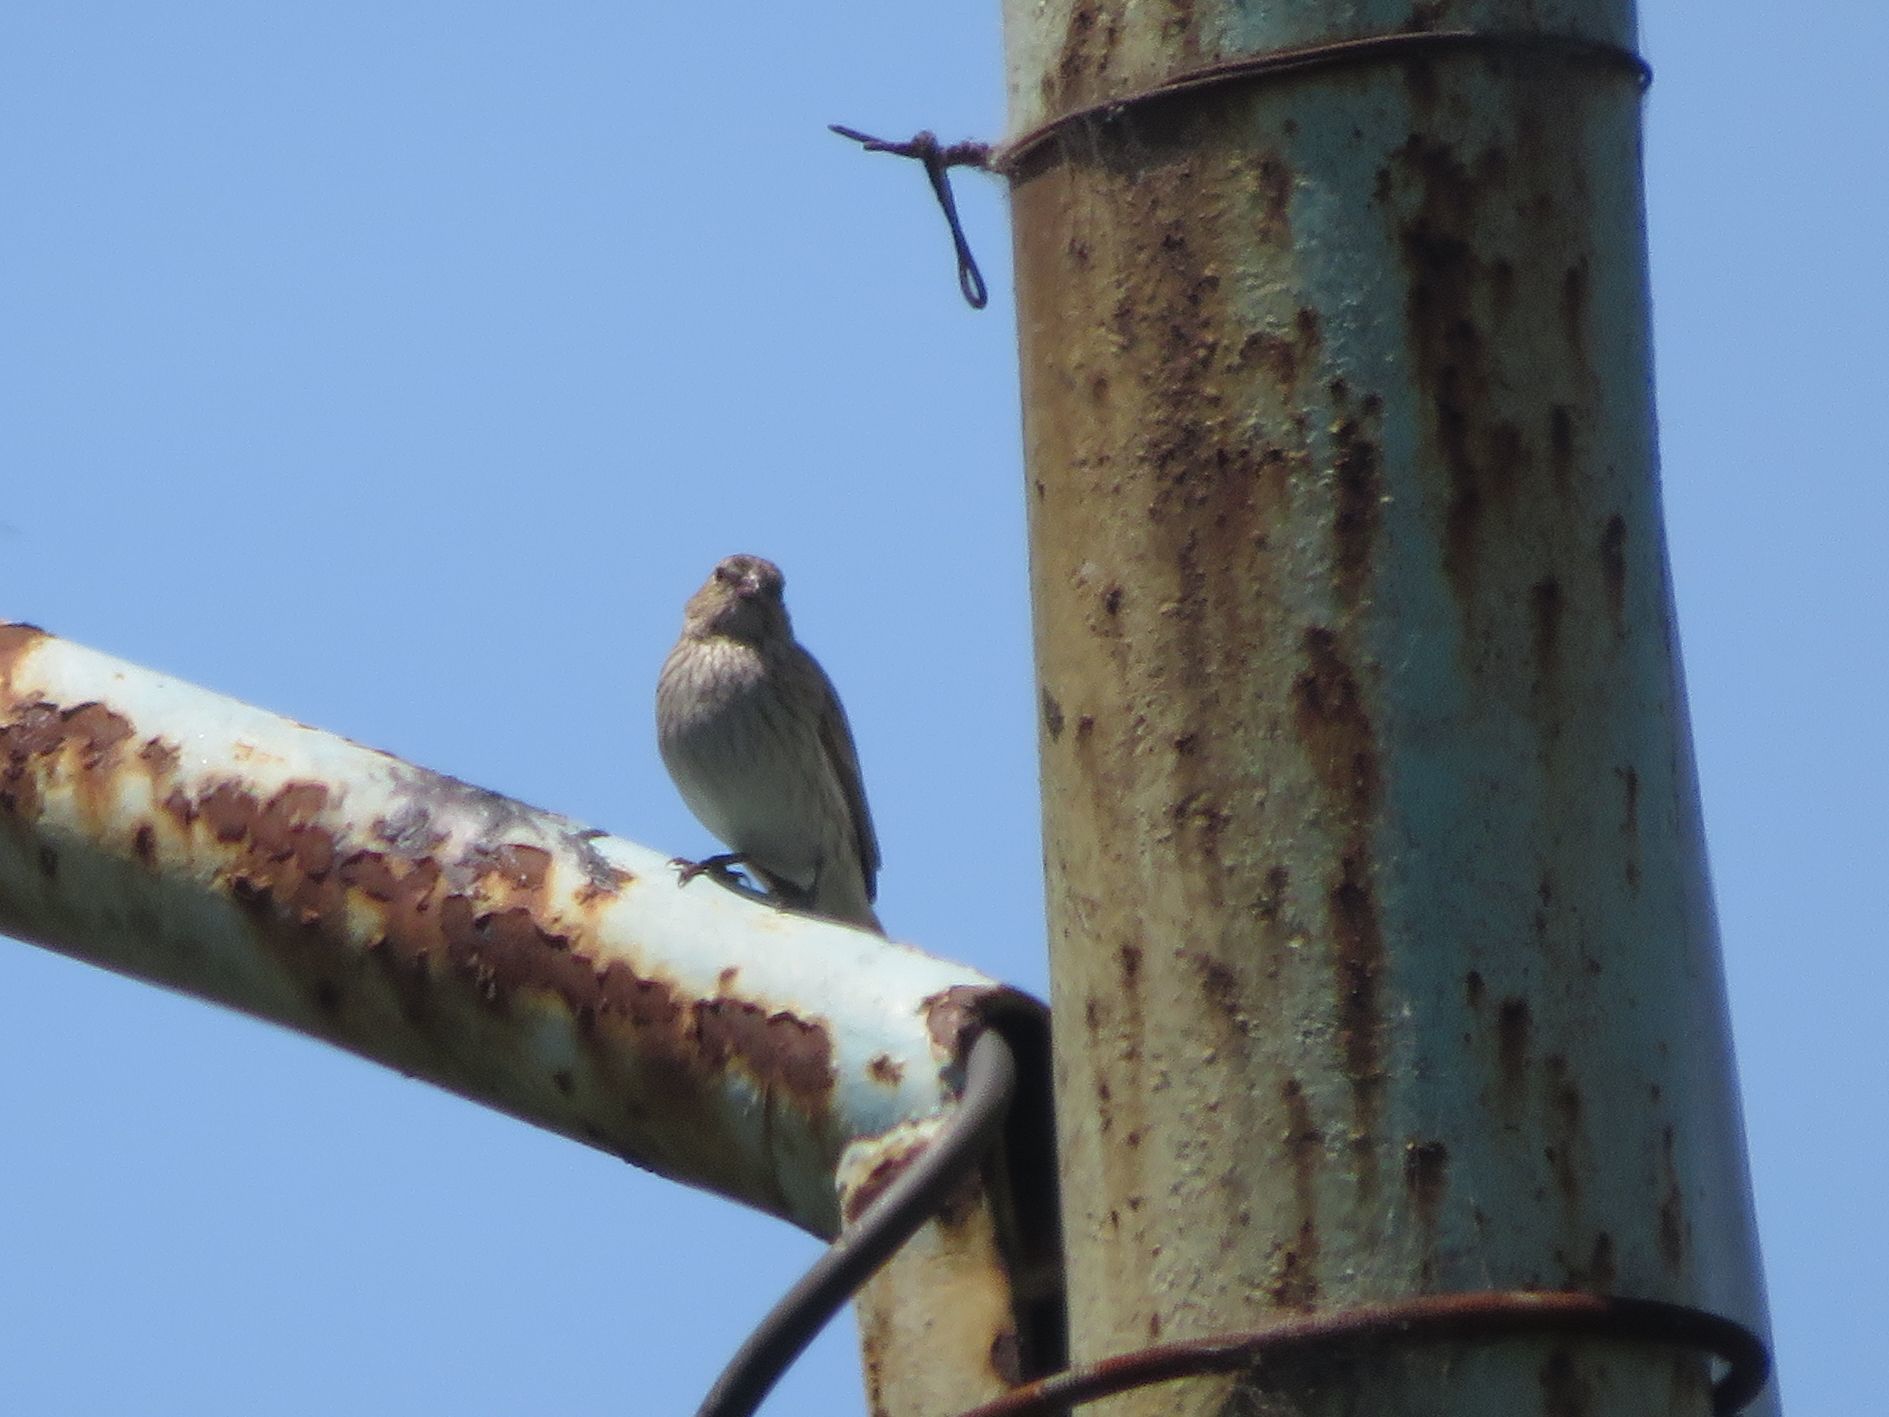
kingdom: Animalia
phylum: Chordata
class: Aves
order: Passeriformes
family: Thraupidae
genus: Sicalis
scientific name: Sicalis flaveola
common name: Saffron finch
